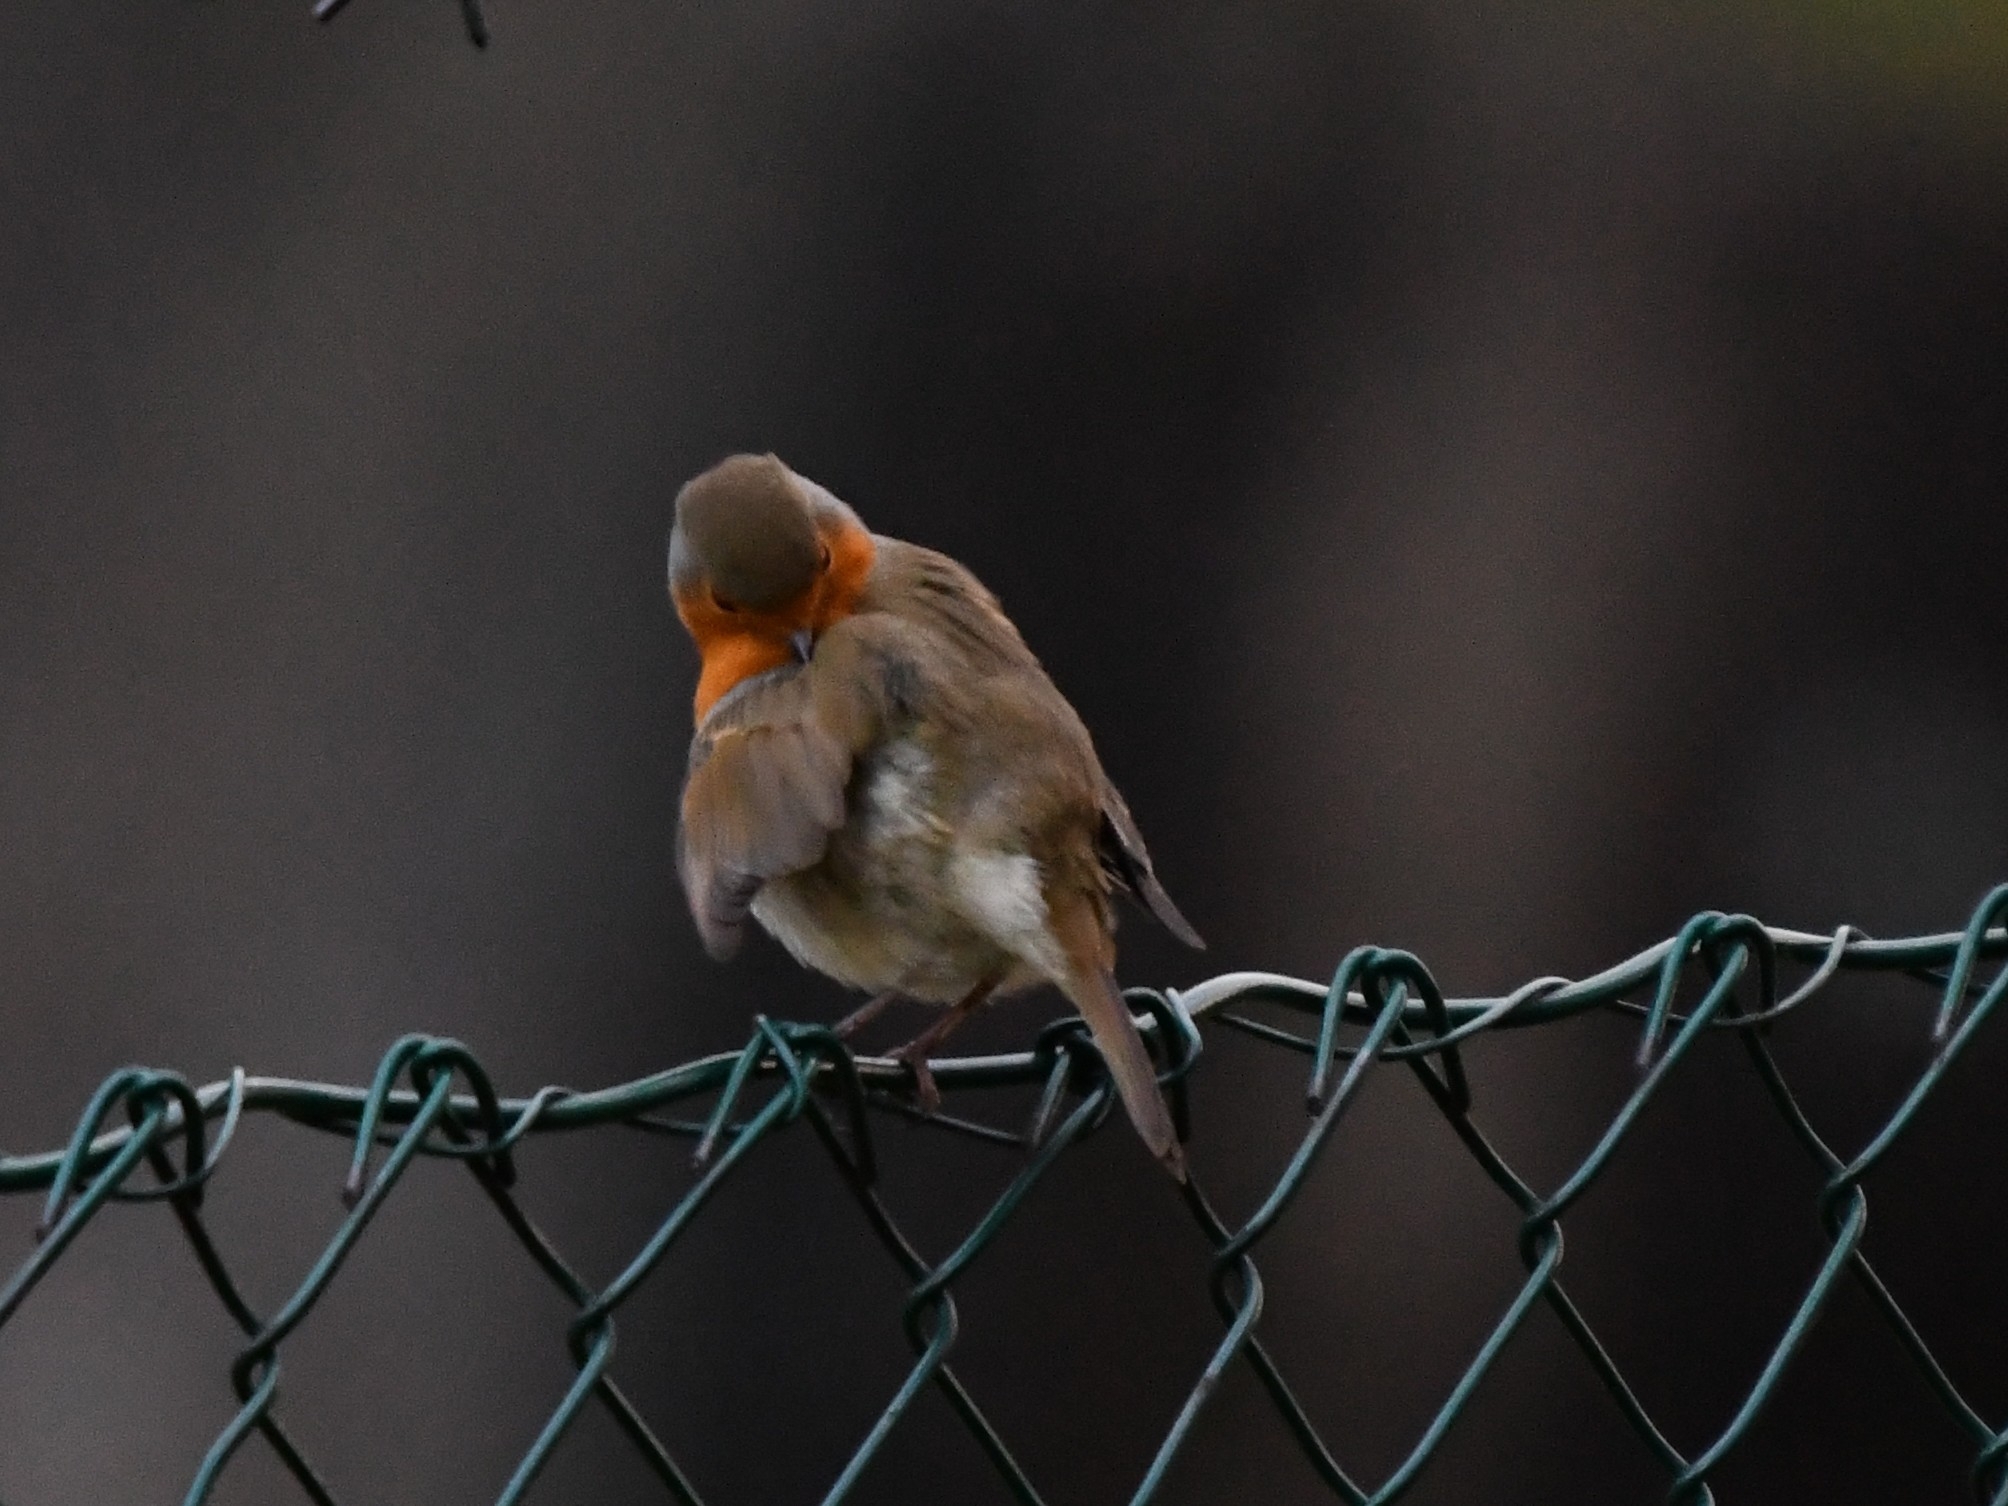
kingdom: Animalia
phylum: Chordata
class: Aves
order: Passeriformes
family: Muscicapidae
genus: Erithacus
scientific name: Erithacus rubecula
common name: European robin
